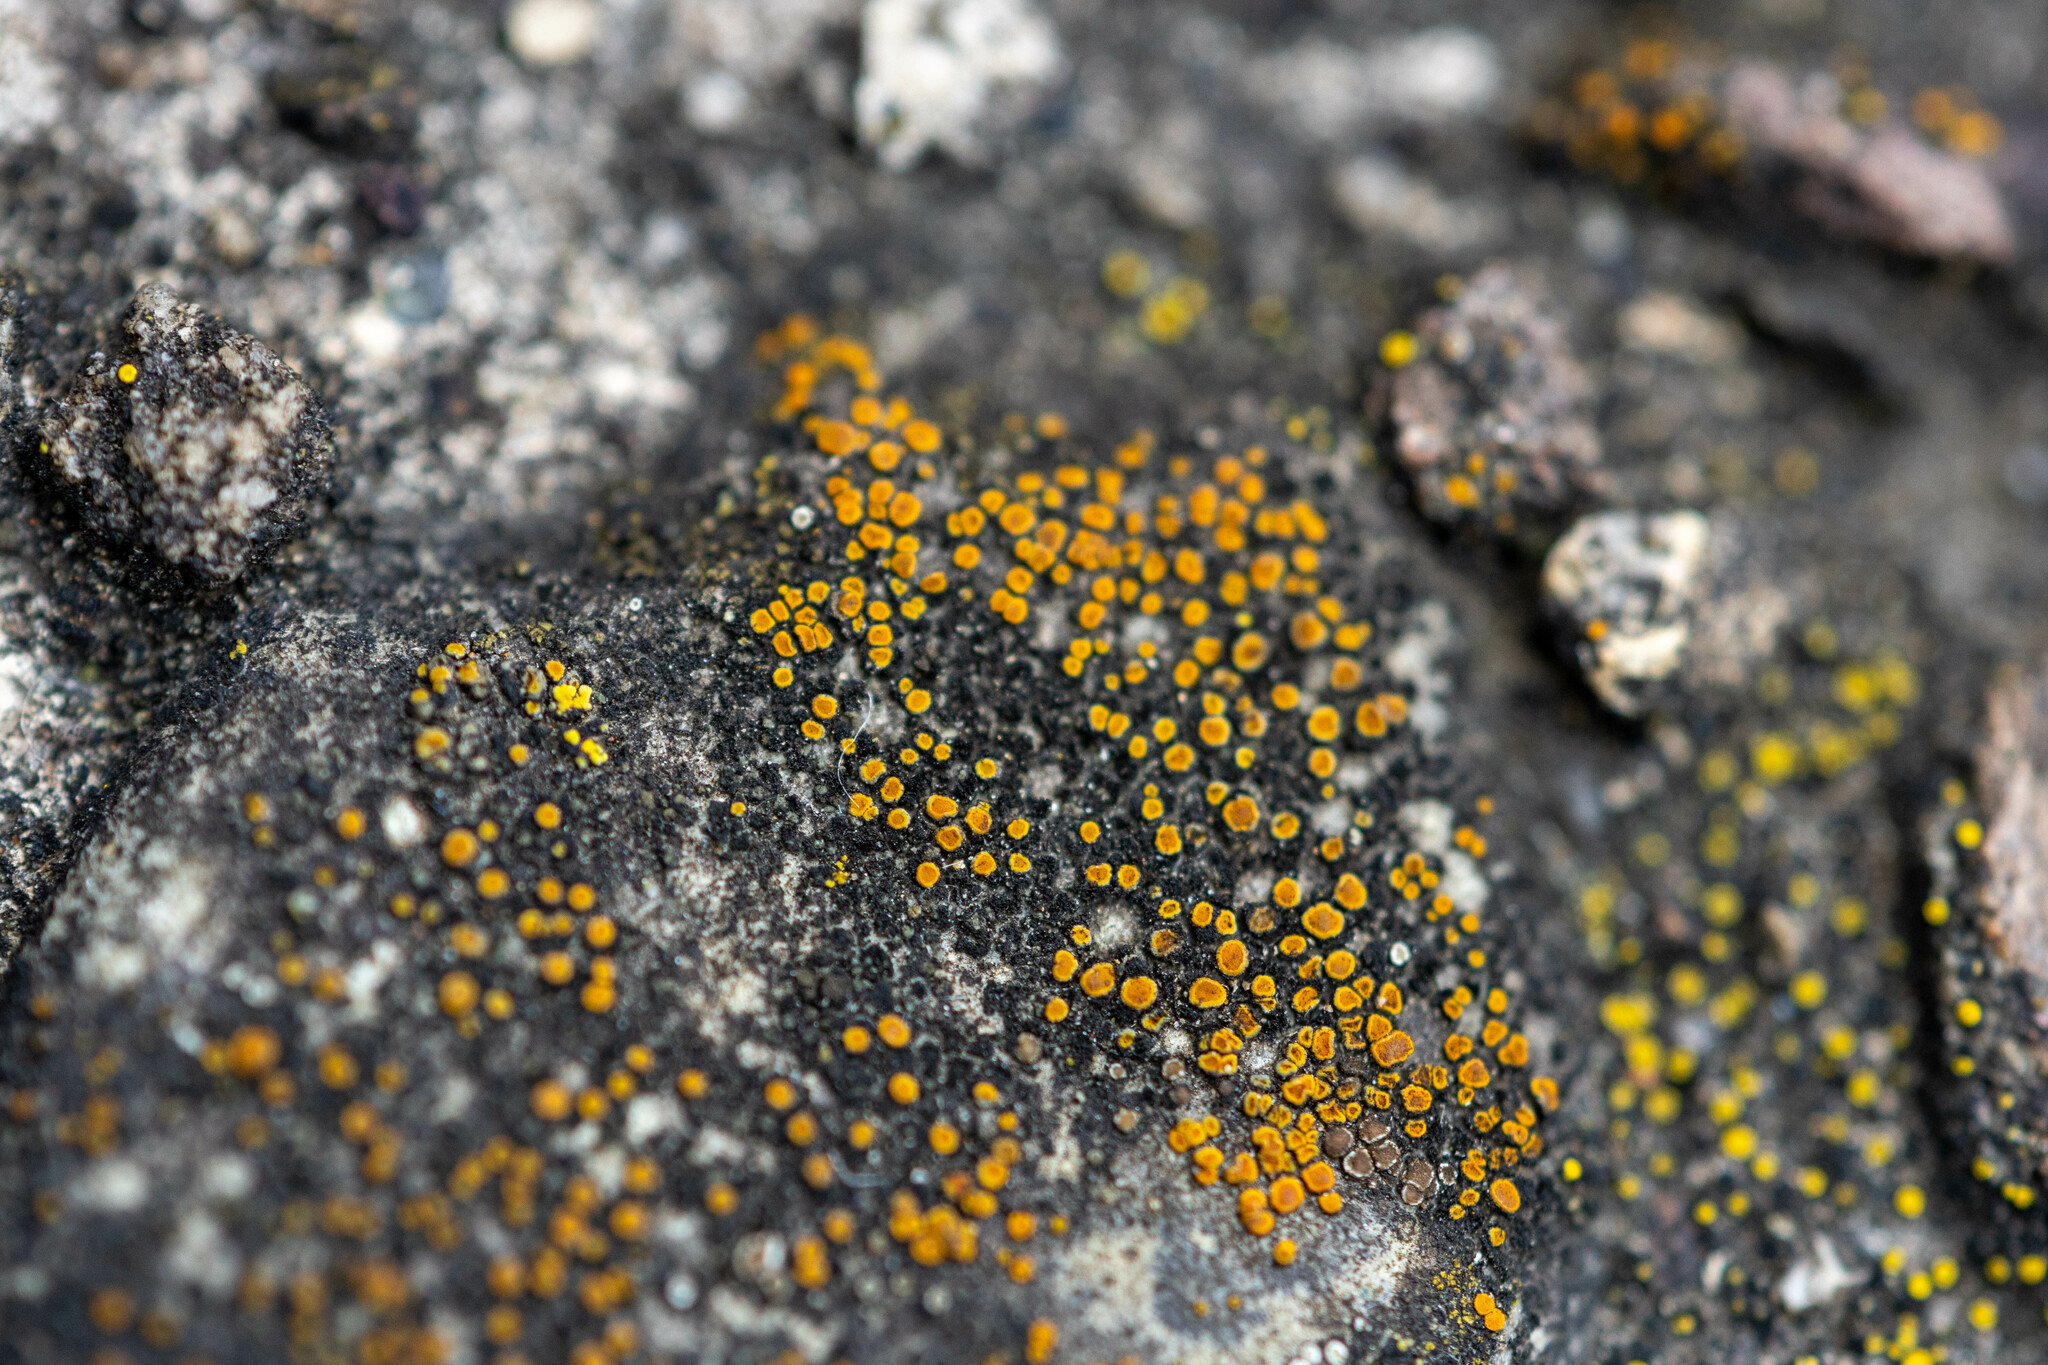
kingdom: Fungi
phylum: Ascomycota
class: Lecanoromycetes
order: Teloschistales
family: Teloschistaceae
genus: Xanthocarpia
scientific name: Xanthocarpia feracissima
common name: Sidewalk firedot
